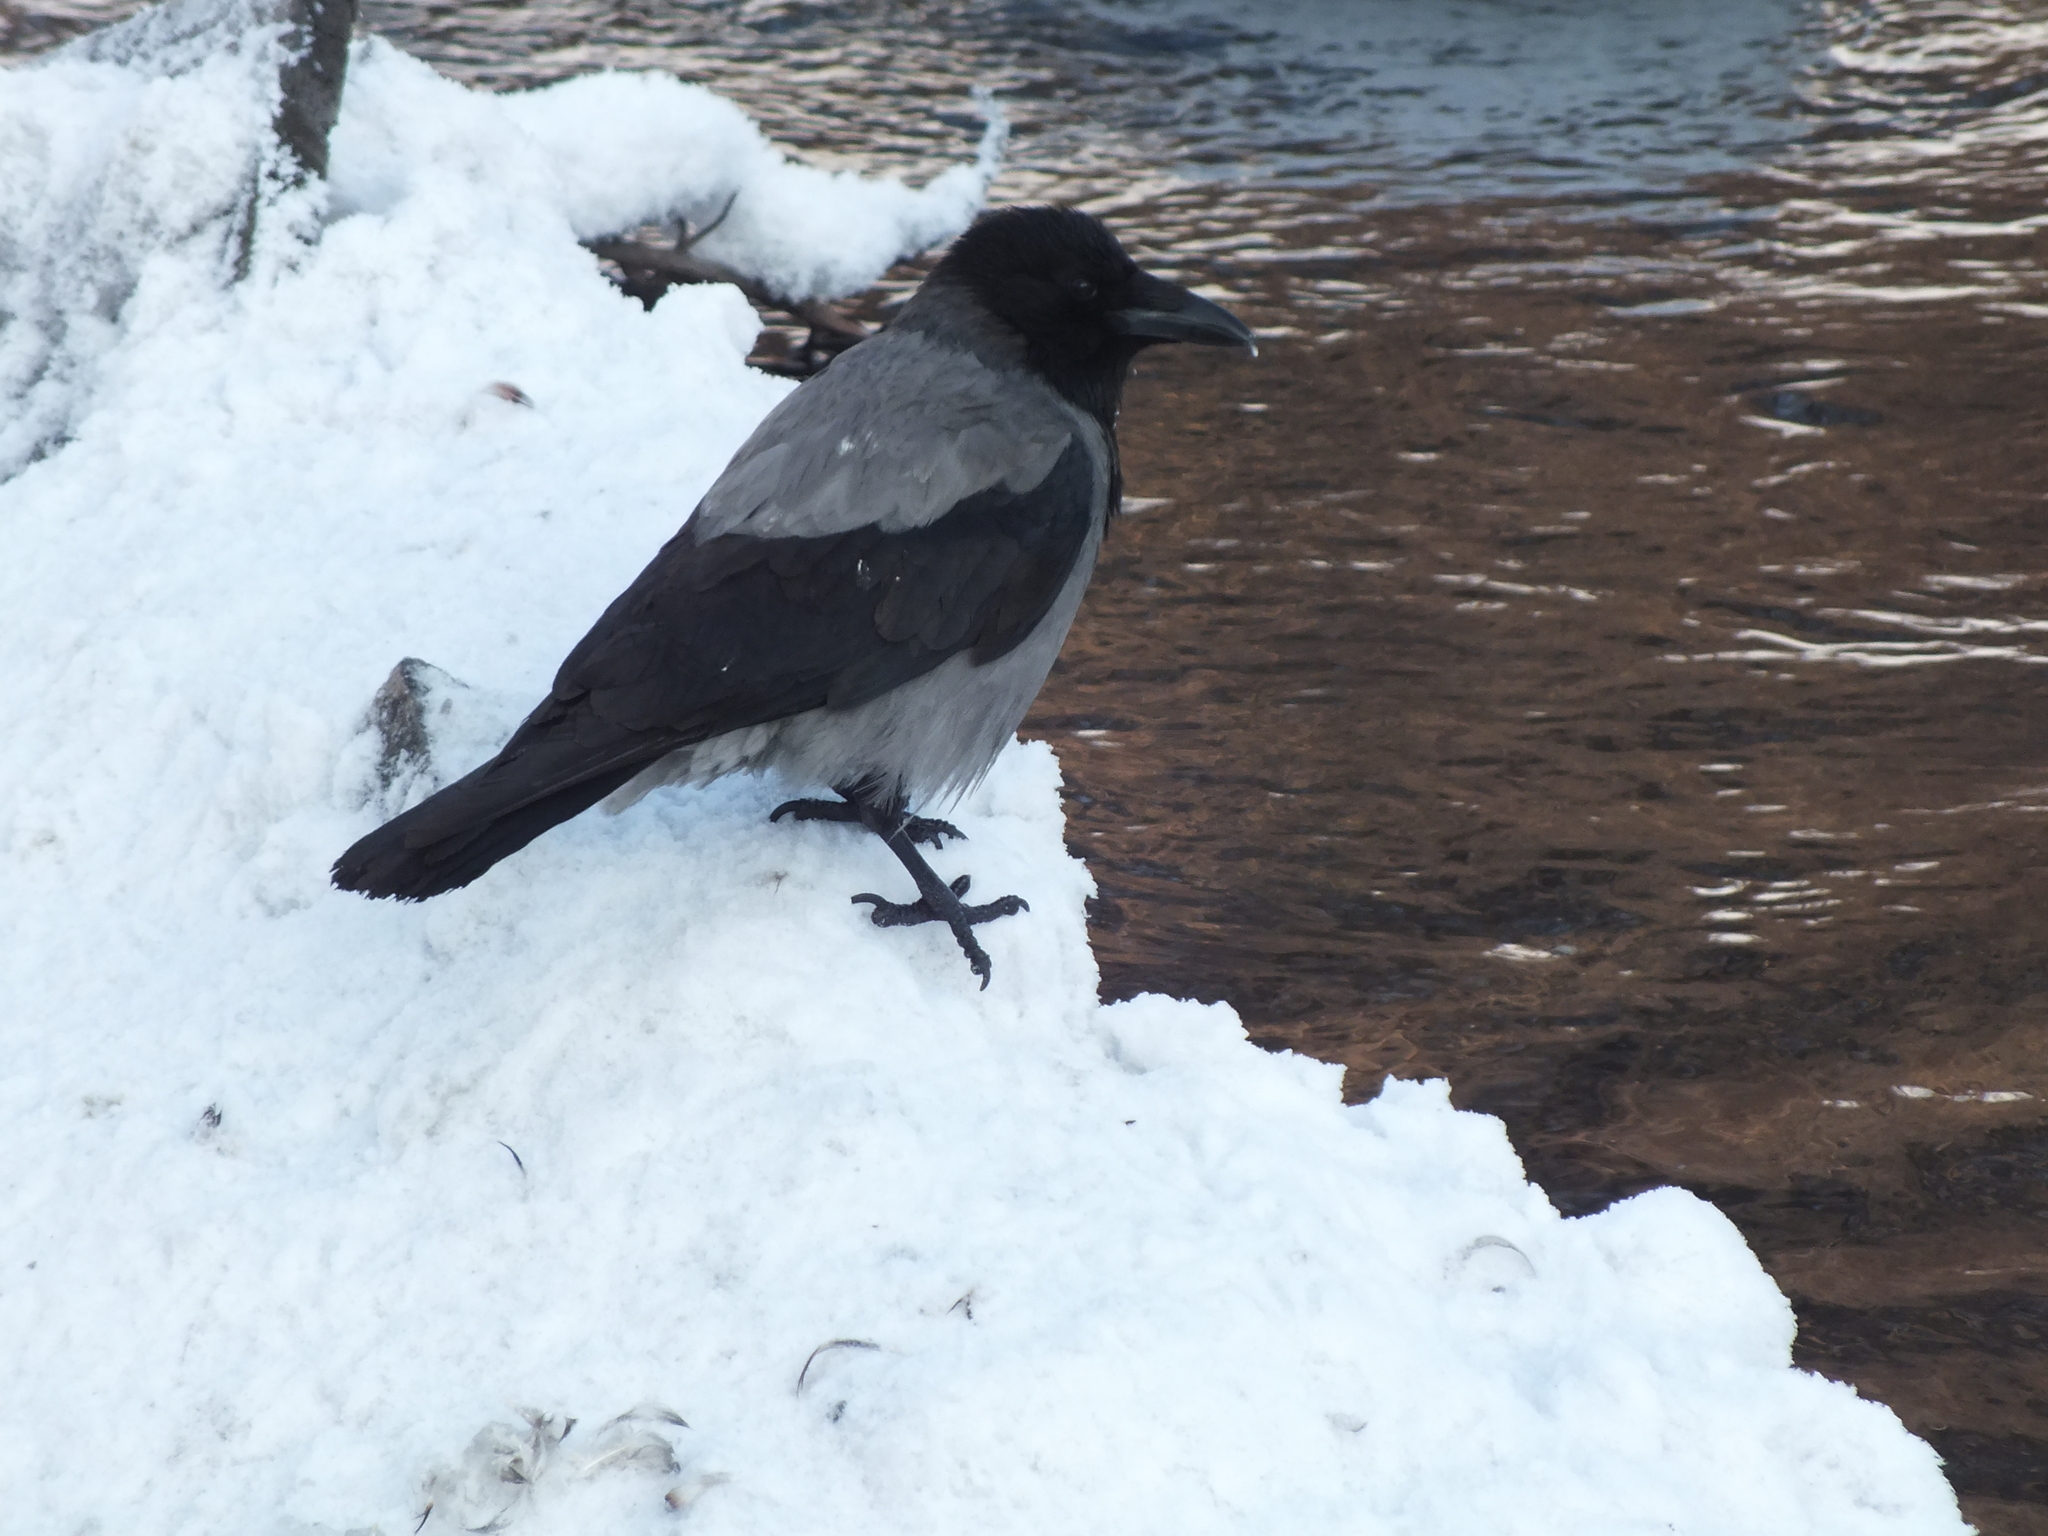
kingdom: Animalia
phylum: Chordata
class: Aves
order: Passeriformes
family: Corvidae
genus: Corvus
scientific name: Corvus cornix
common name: Hooded crow
